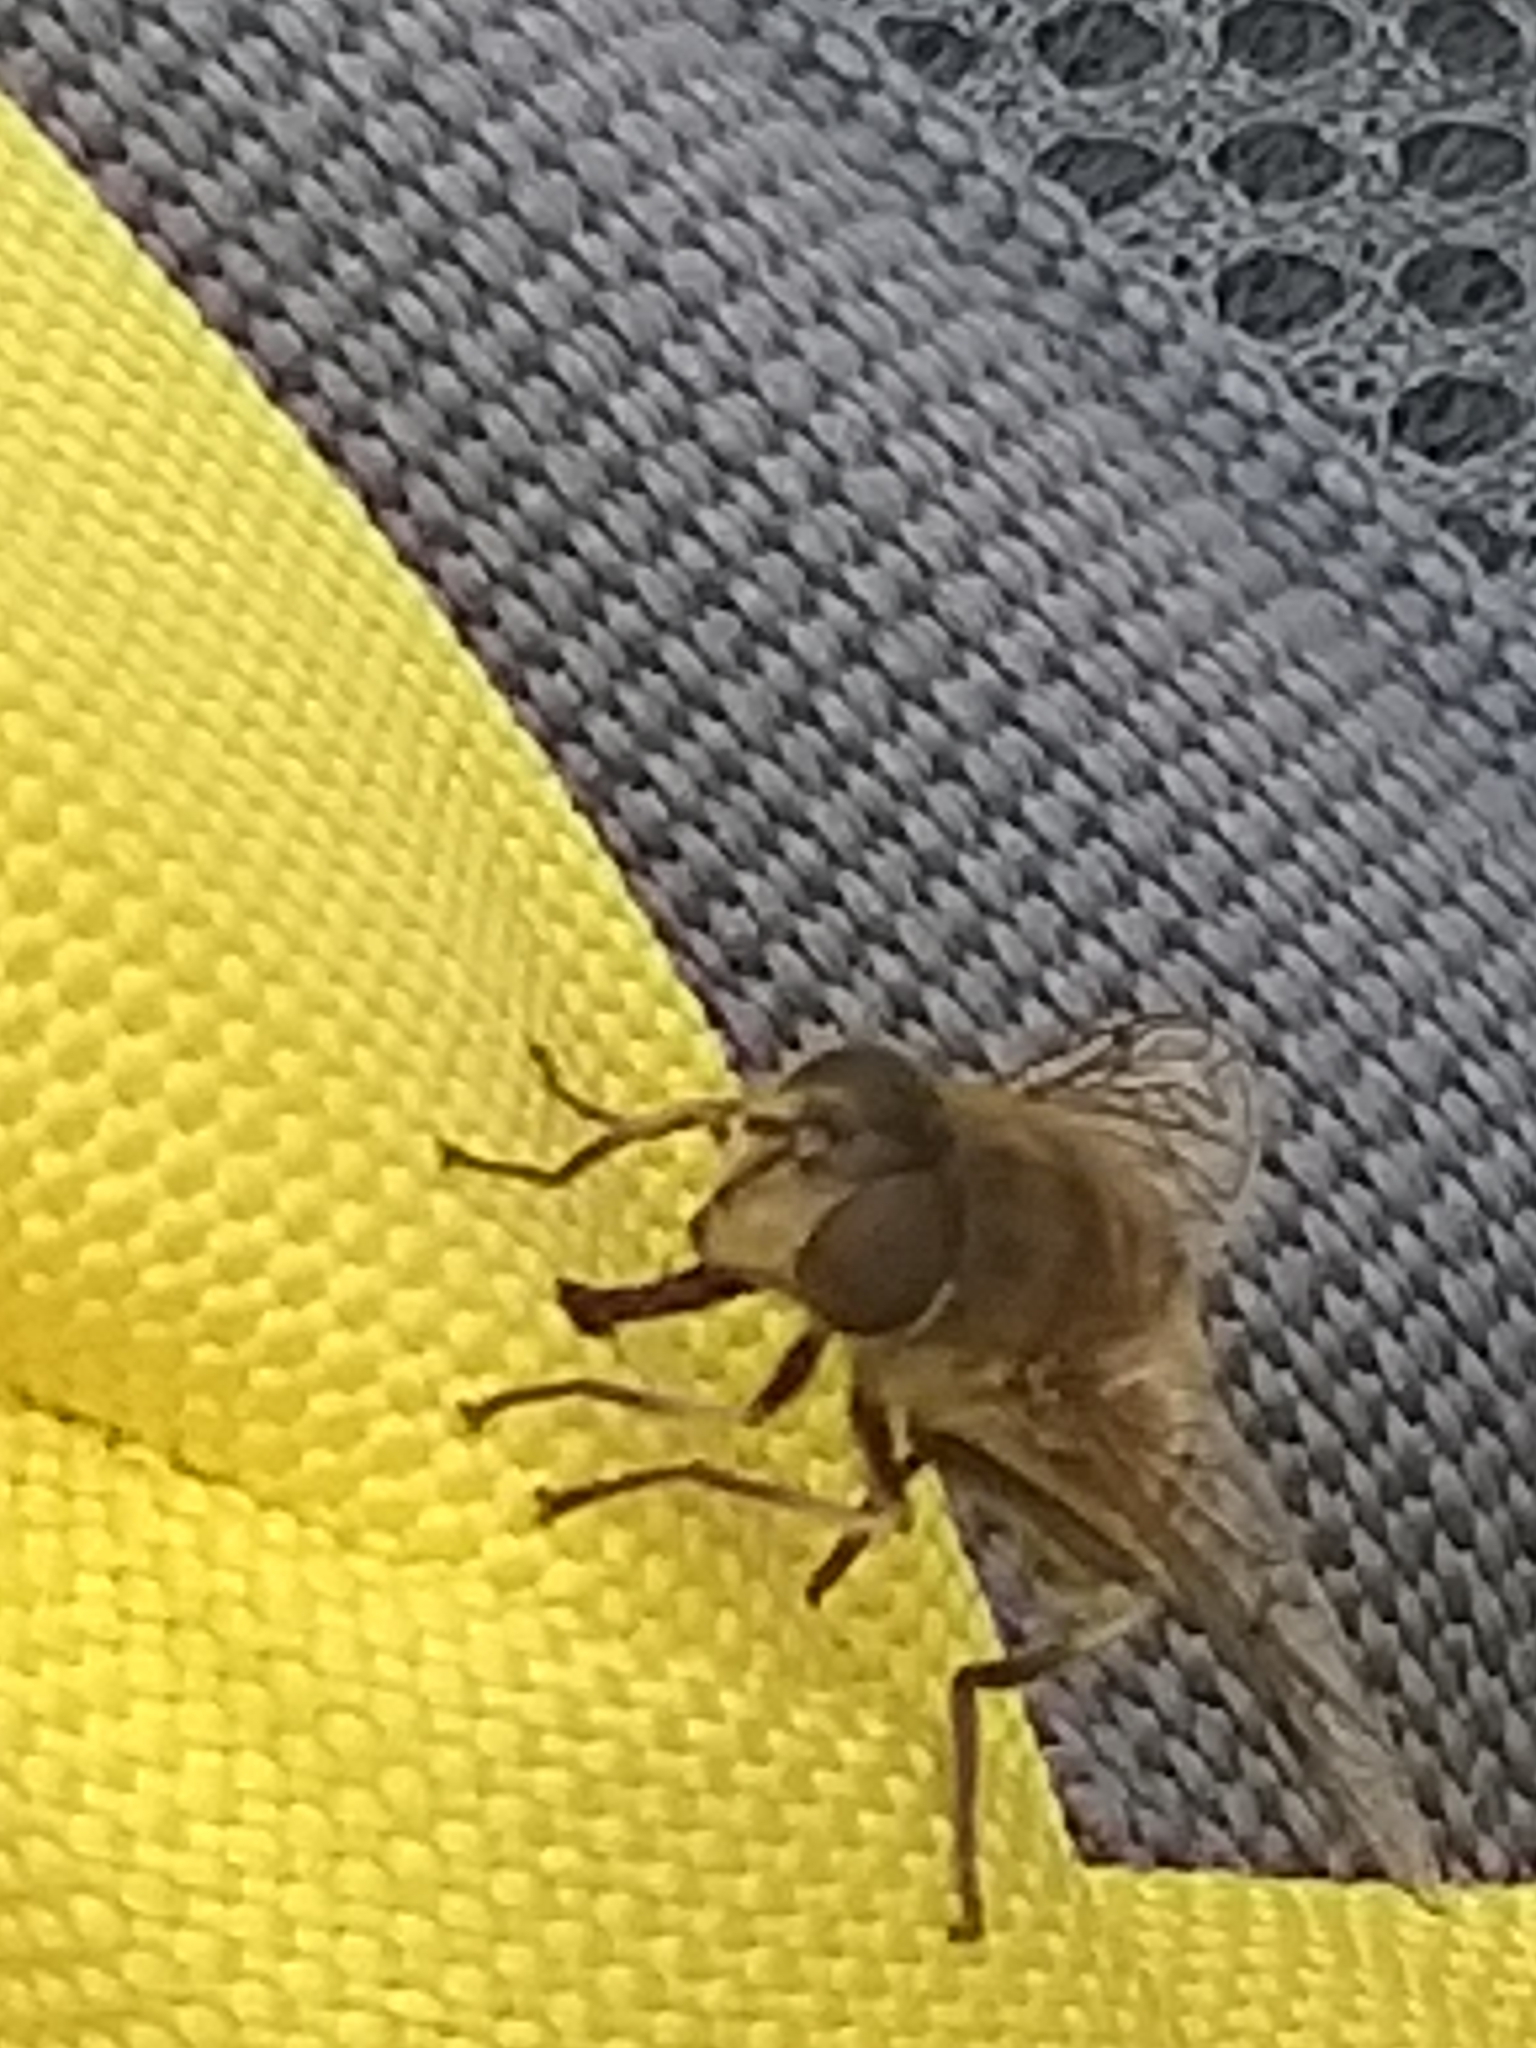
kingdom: Animalia
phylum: Arthropoda
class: Insecta
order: Diptera
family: Syrphidae
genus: Eristalis
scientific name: Eristalis pertinax
